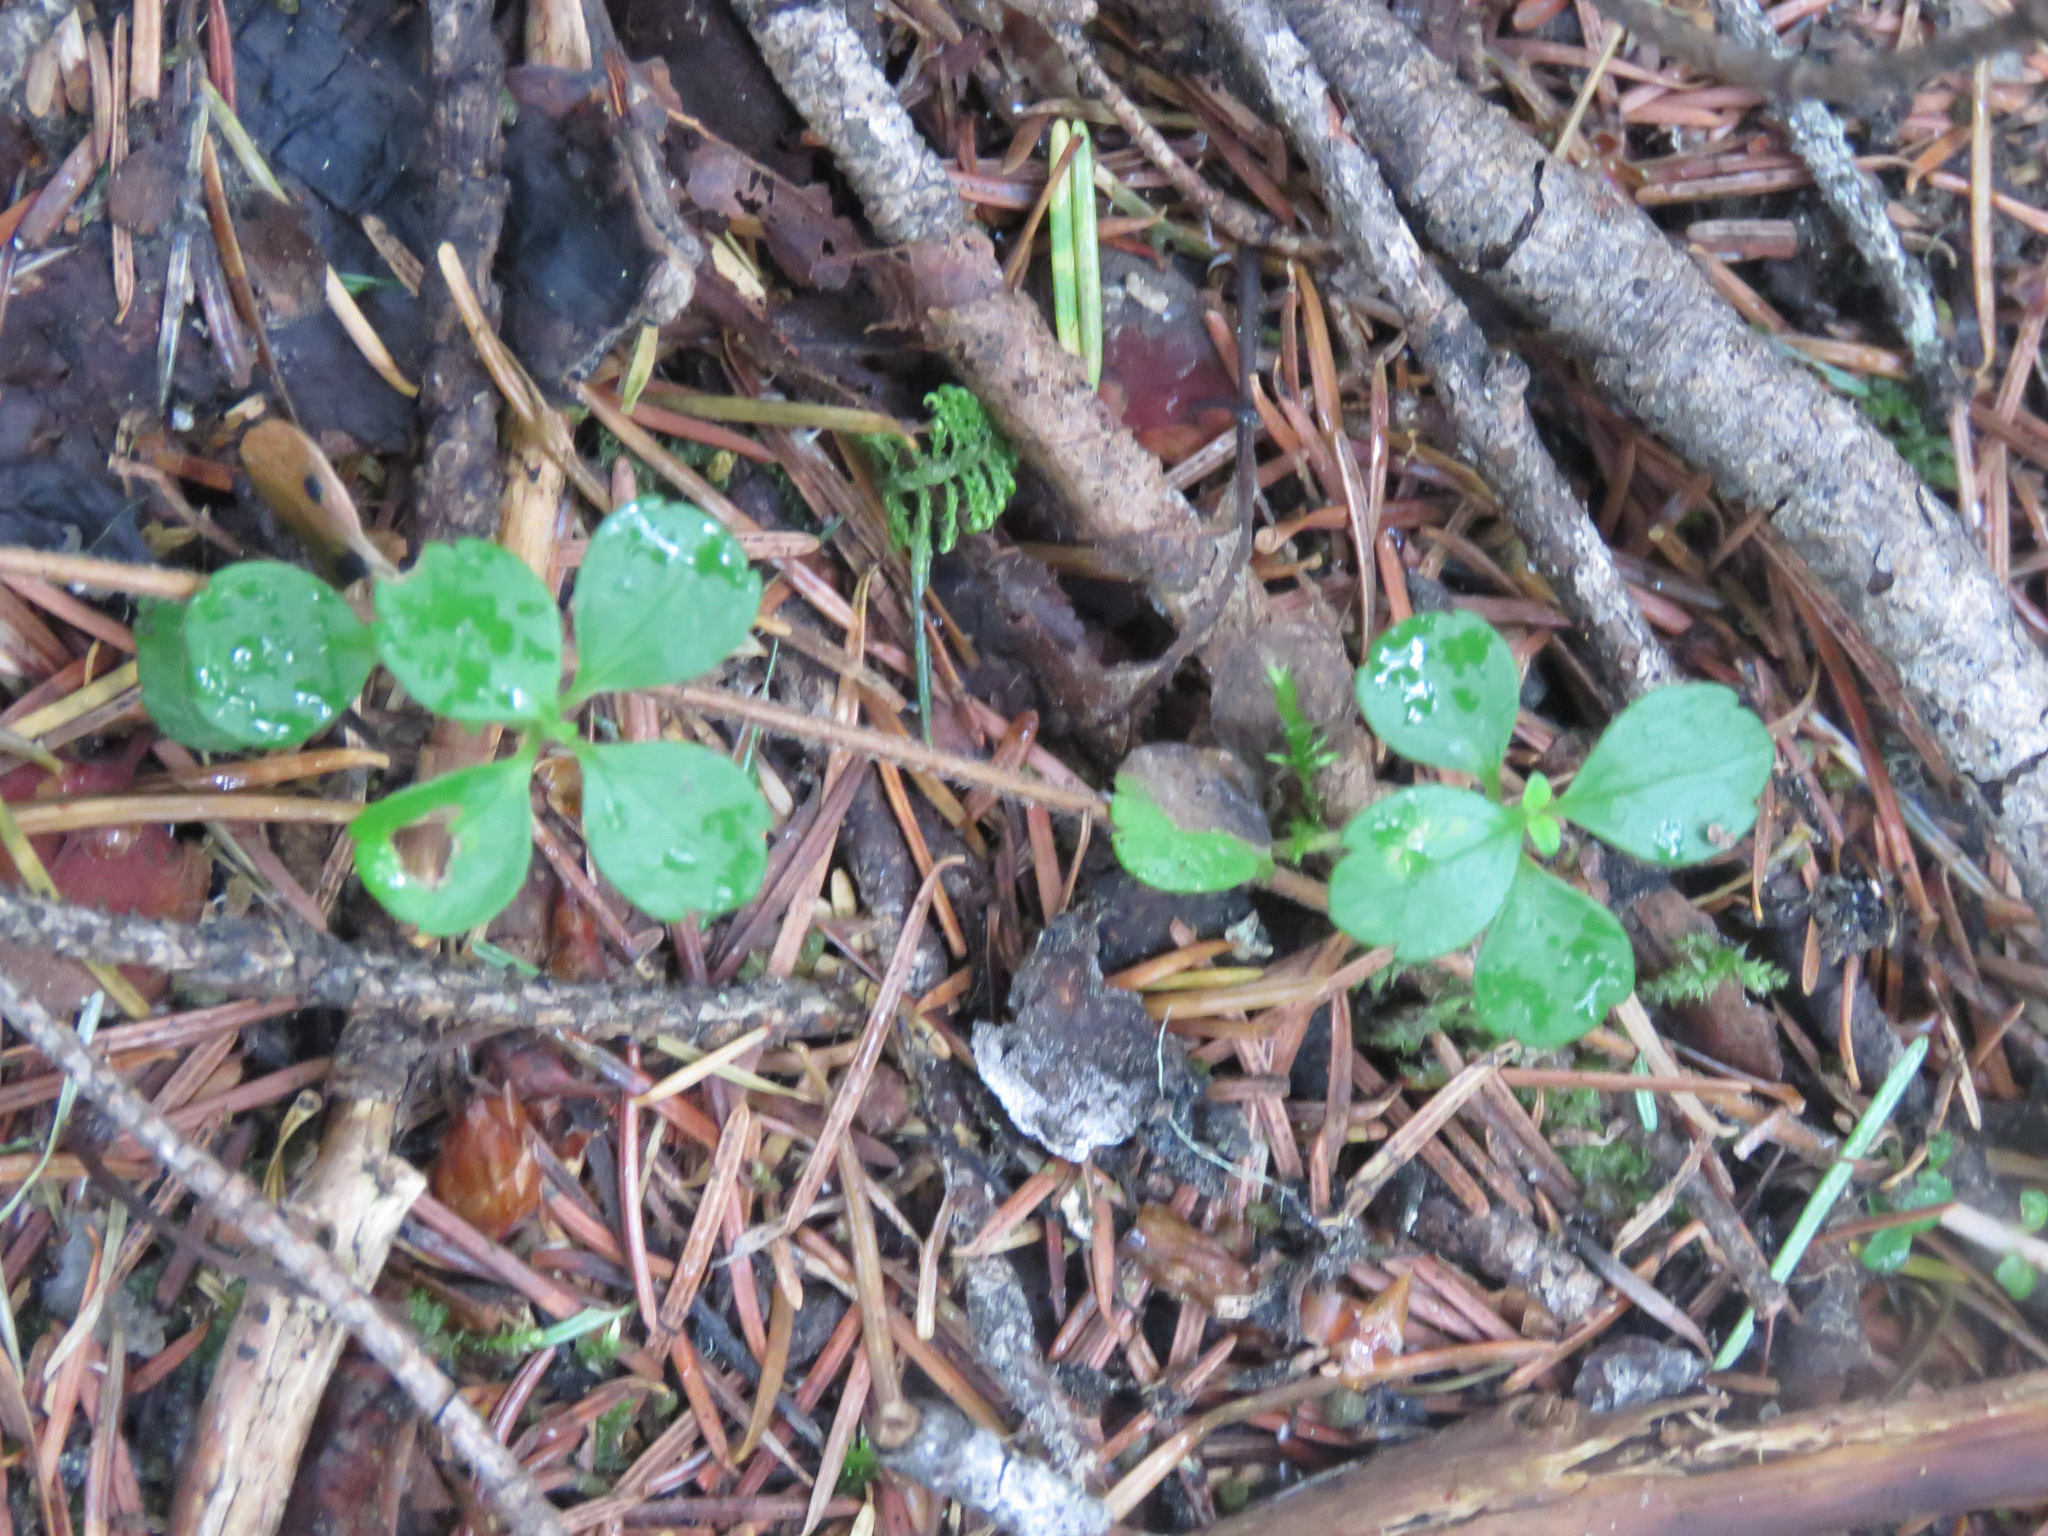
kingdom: Plantae
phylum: Tracheophyta
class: Magnoliopsida
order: Dipsacales
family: Caprifoliaceae
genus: Linnaea
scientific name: Linnaea borealis
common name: Twinflower
